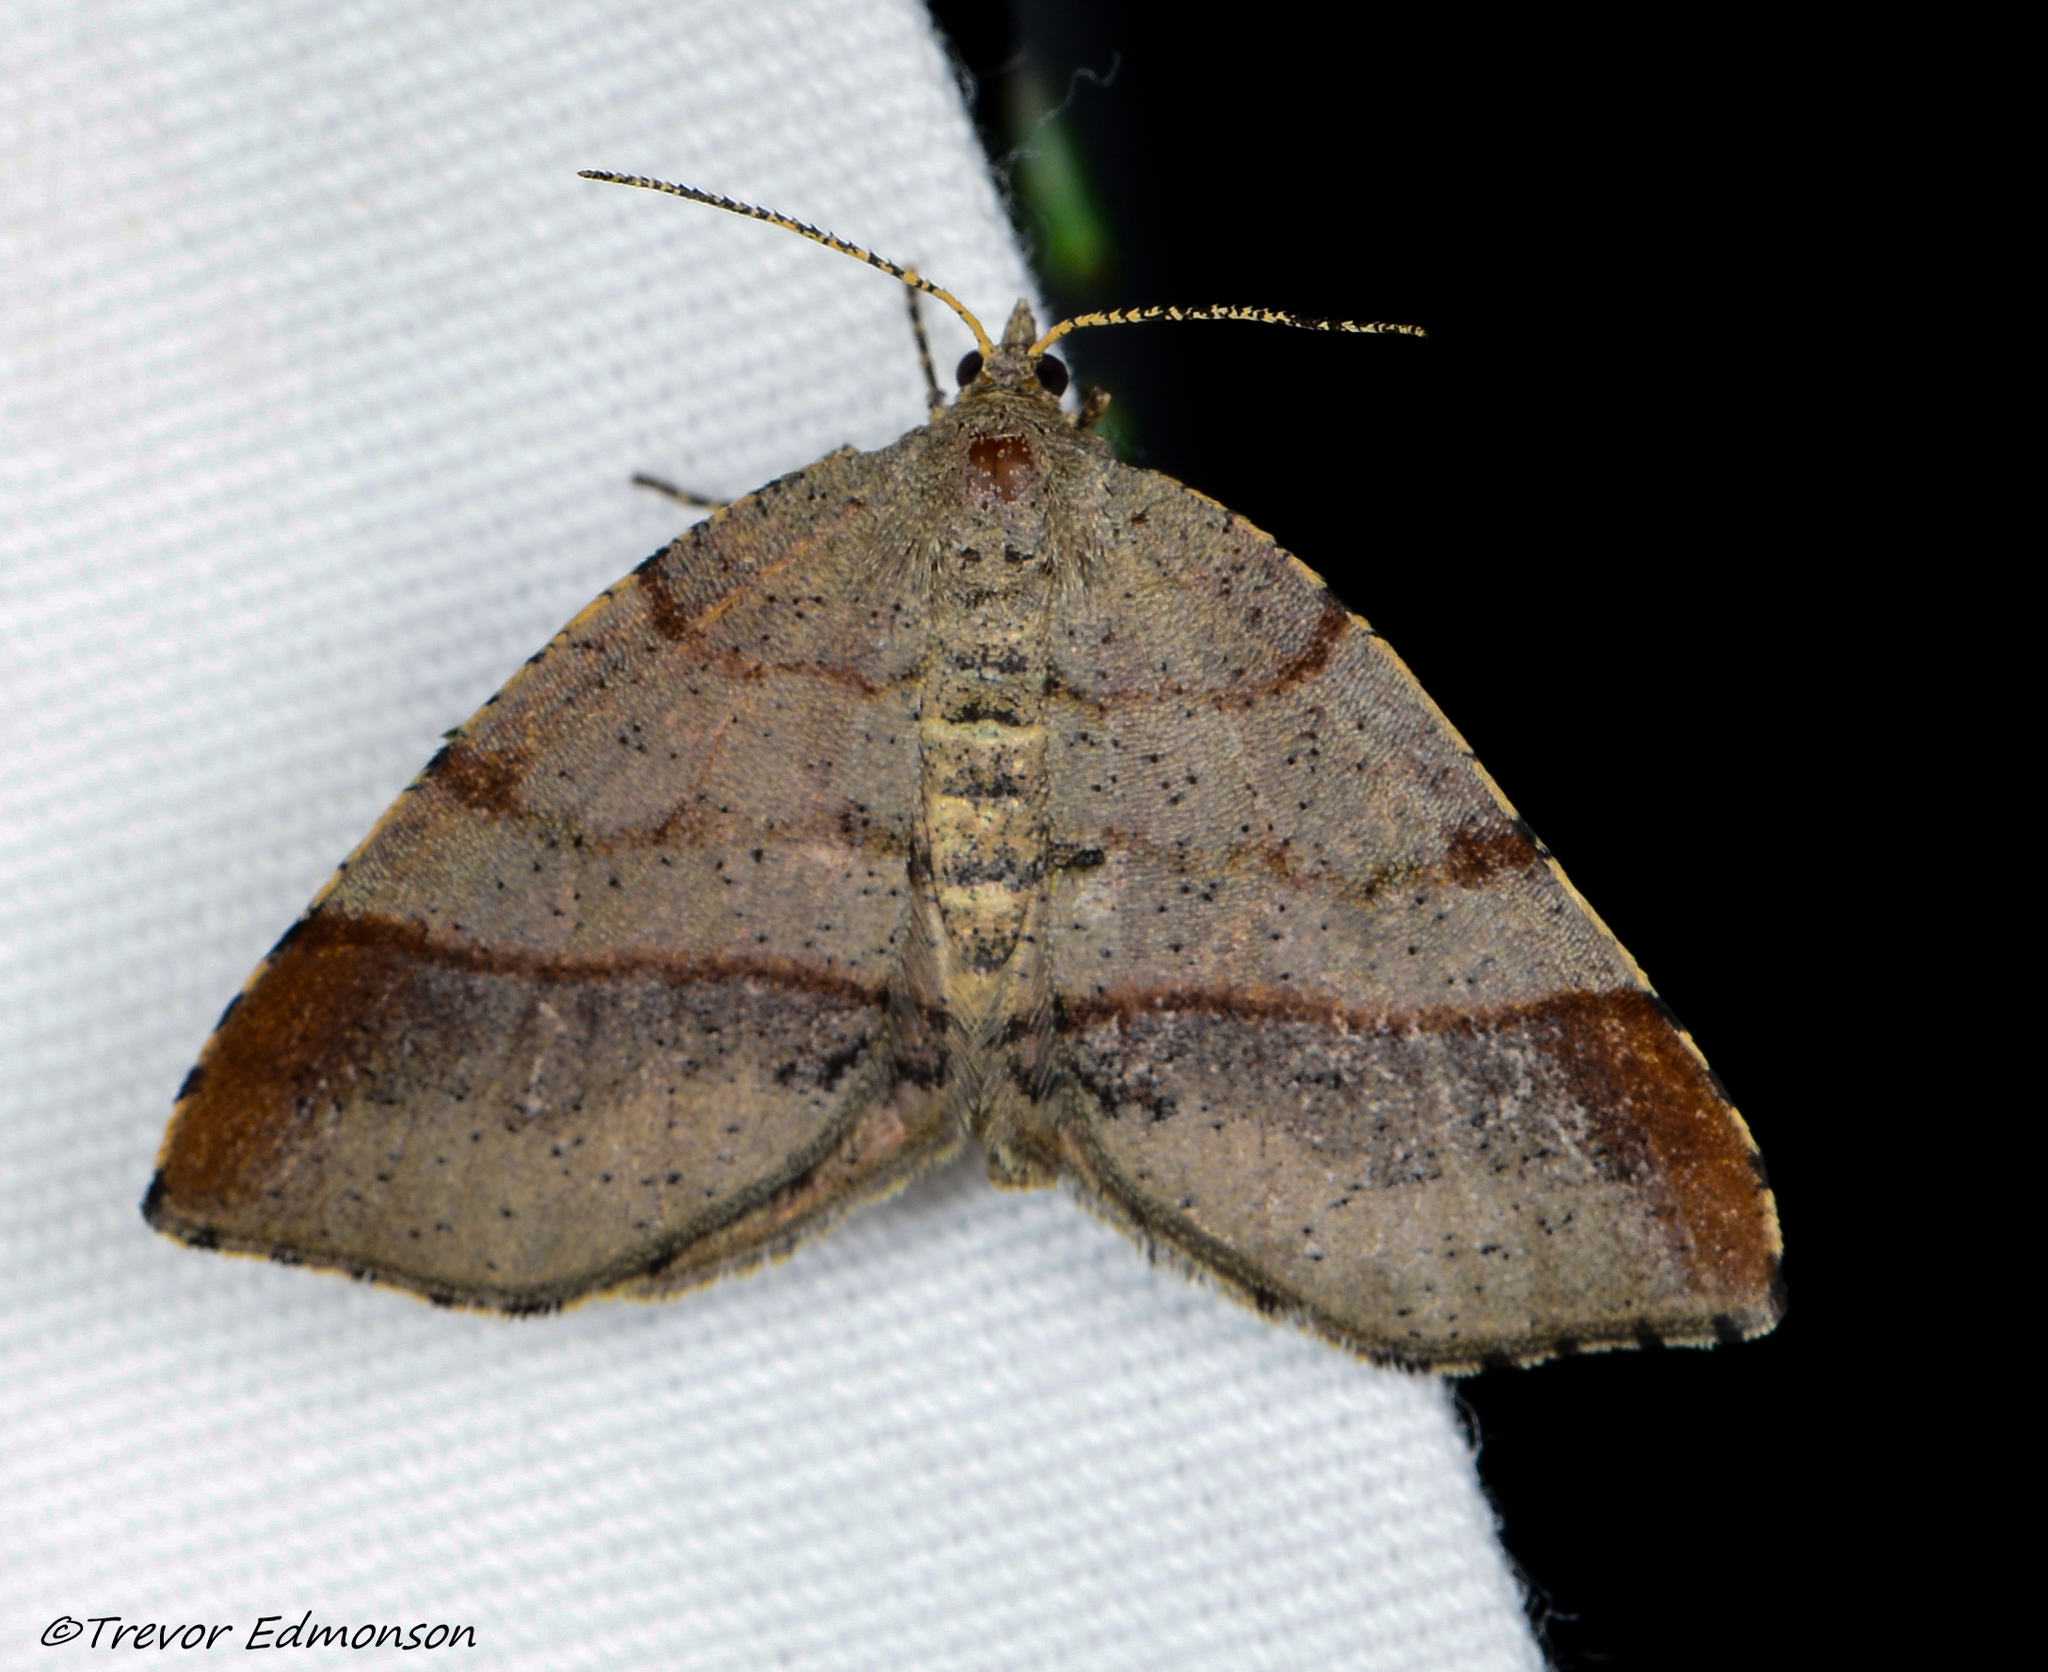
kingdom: Animalia
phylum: Arthropoda
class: Insecta
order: Lepidoptera
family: Geometridae
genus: Mellilla
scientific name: Mellilla xanthometata
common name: Orange wing moth
